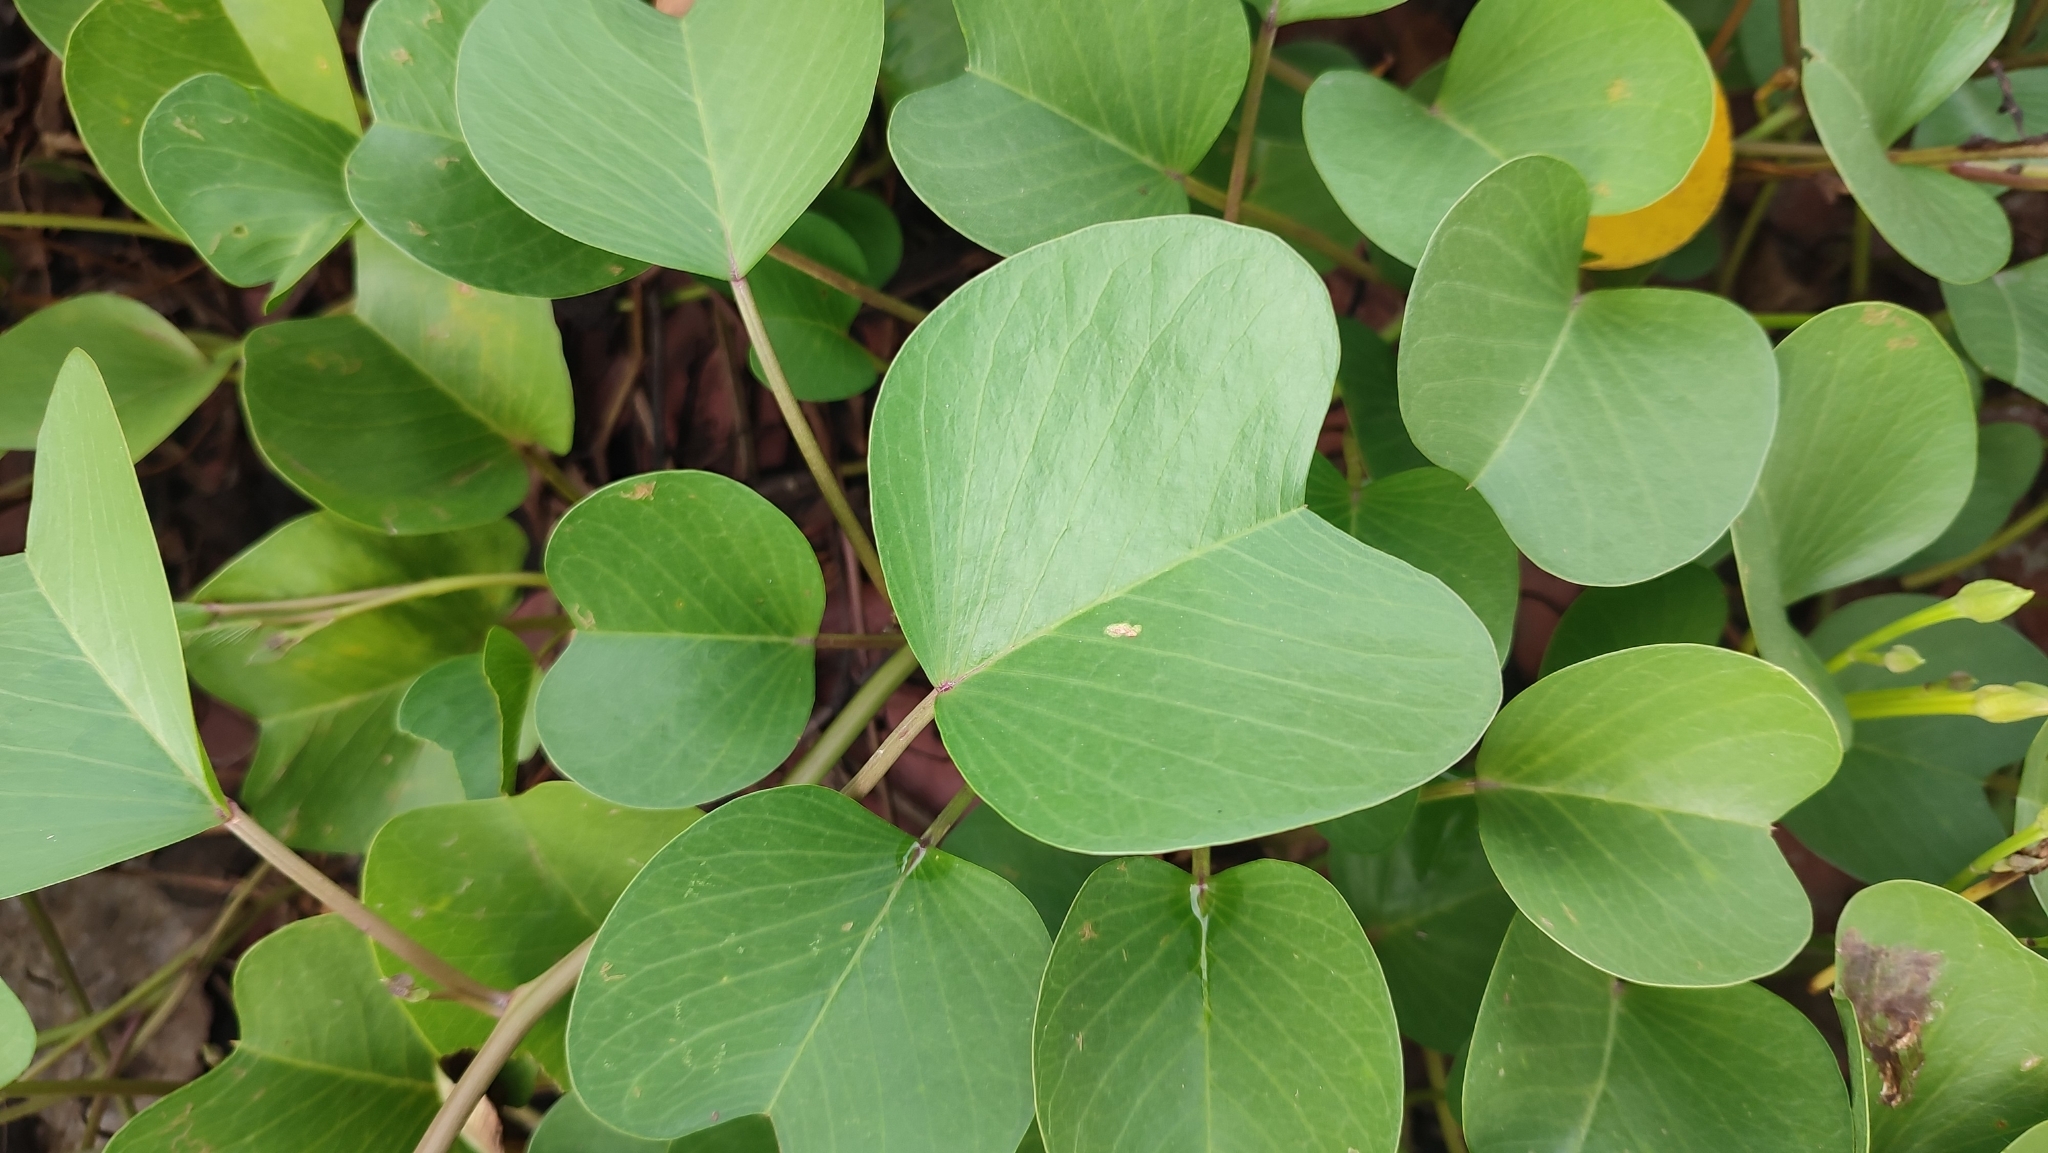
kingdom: Plantae
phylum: Tracheophyta
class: Magnoliopsida
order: Solanales
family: Convolvulaceae
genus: Ipomoea
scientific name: Ipomoea pes-caprae
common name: Beach morning glory
